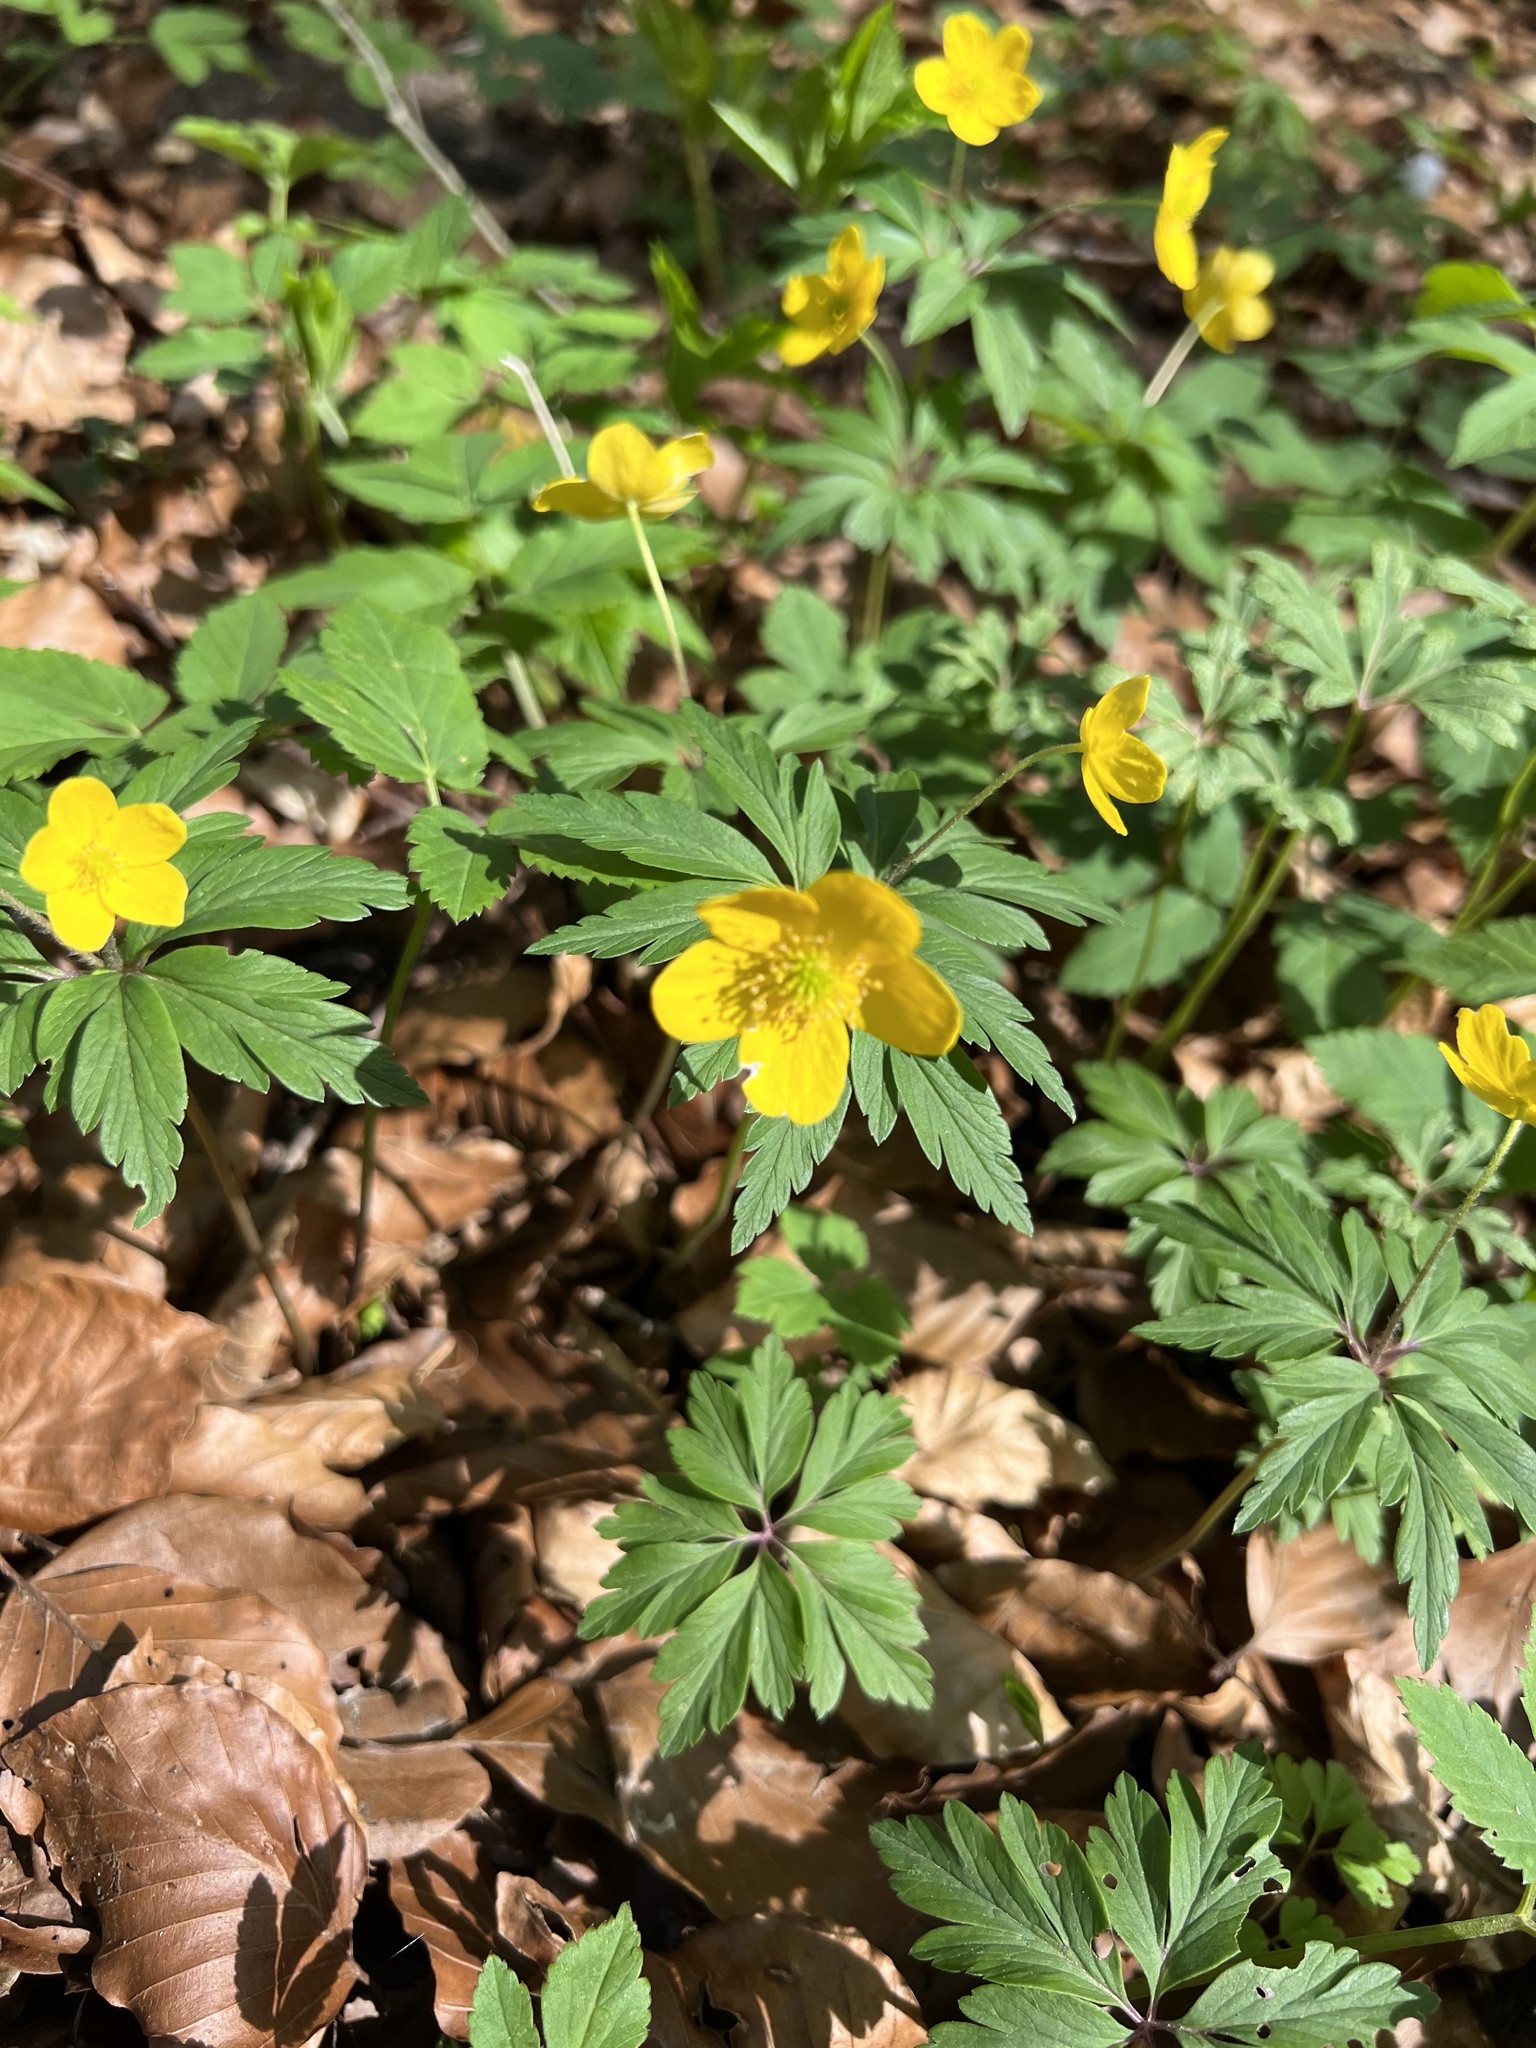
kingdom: Plantae
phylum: Tracheophyta
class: Magnoliopsida
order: Ranunculales
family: Ranunculaceae
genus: Anemone
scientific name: Anemone ranunculoides
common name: Yellow anemone
